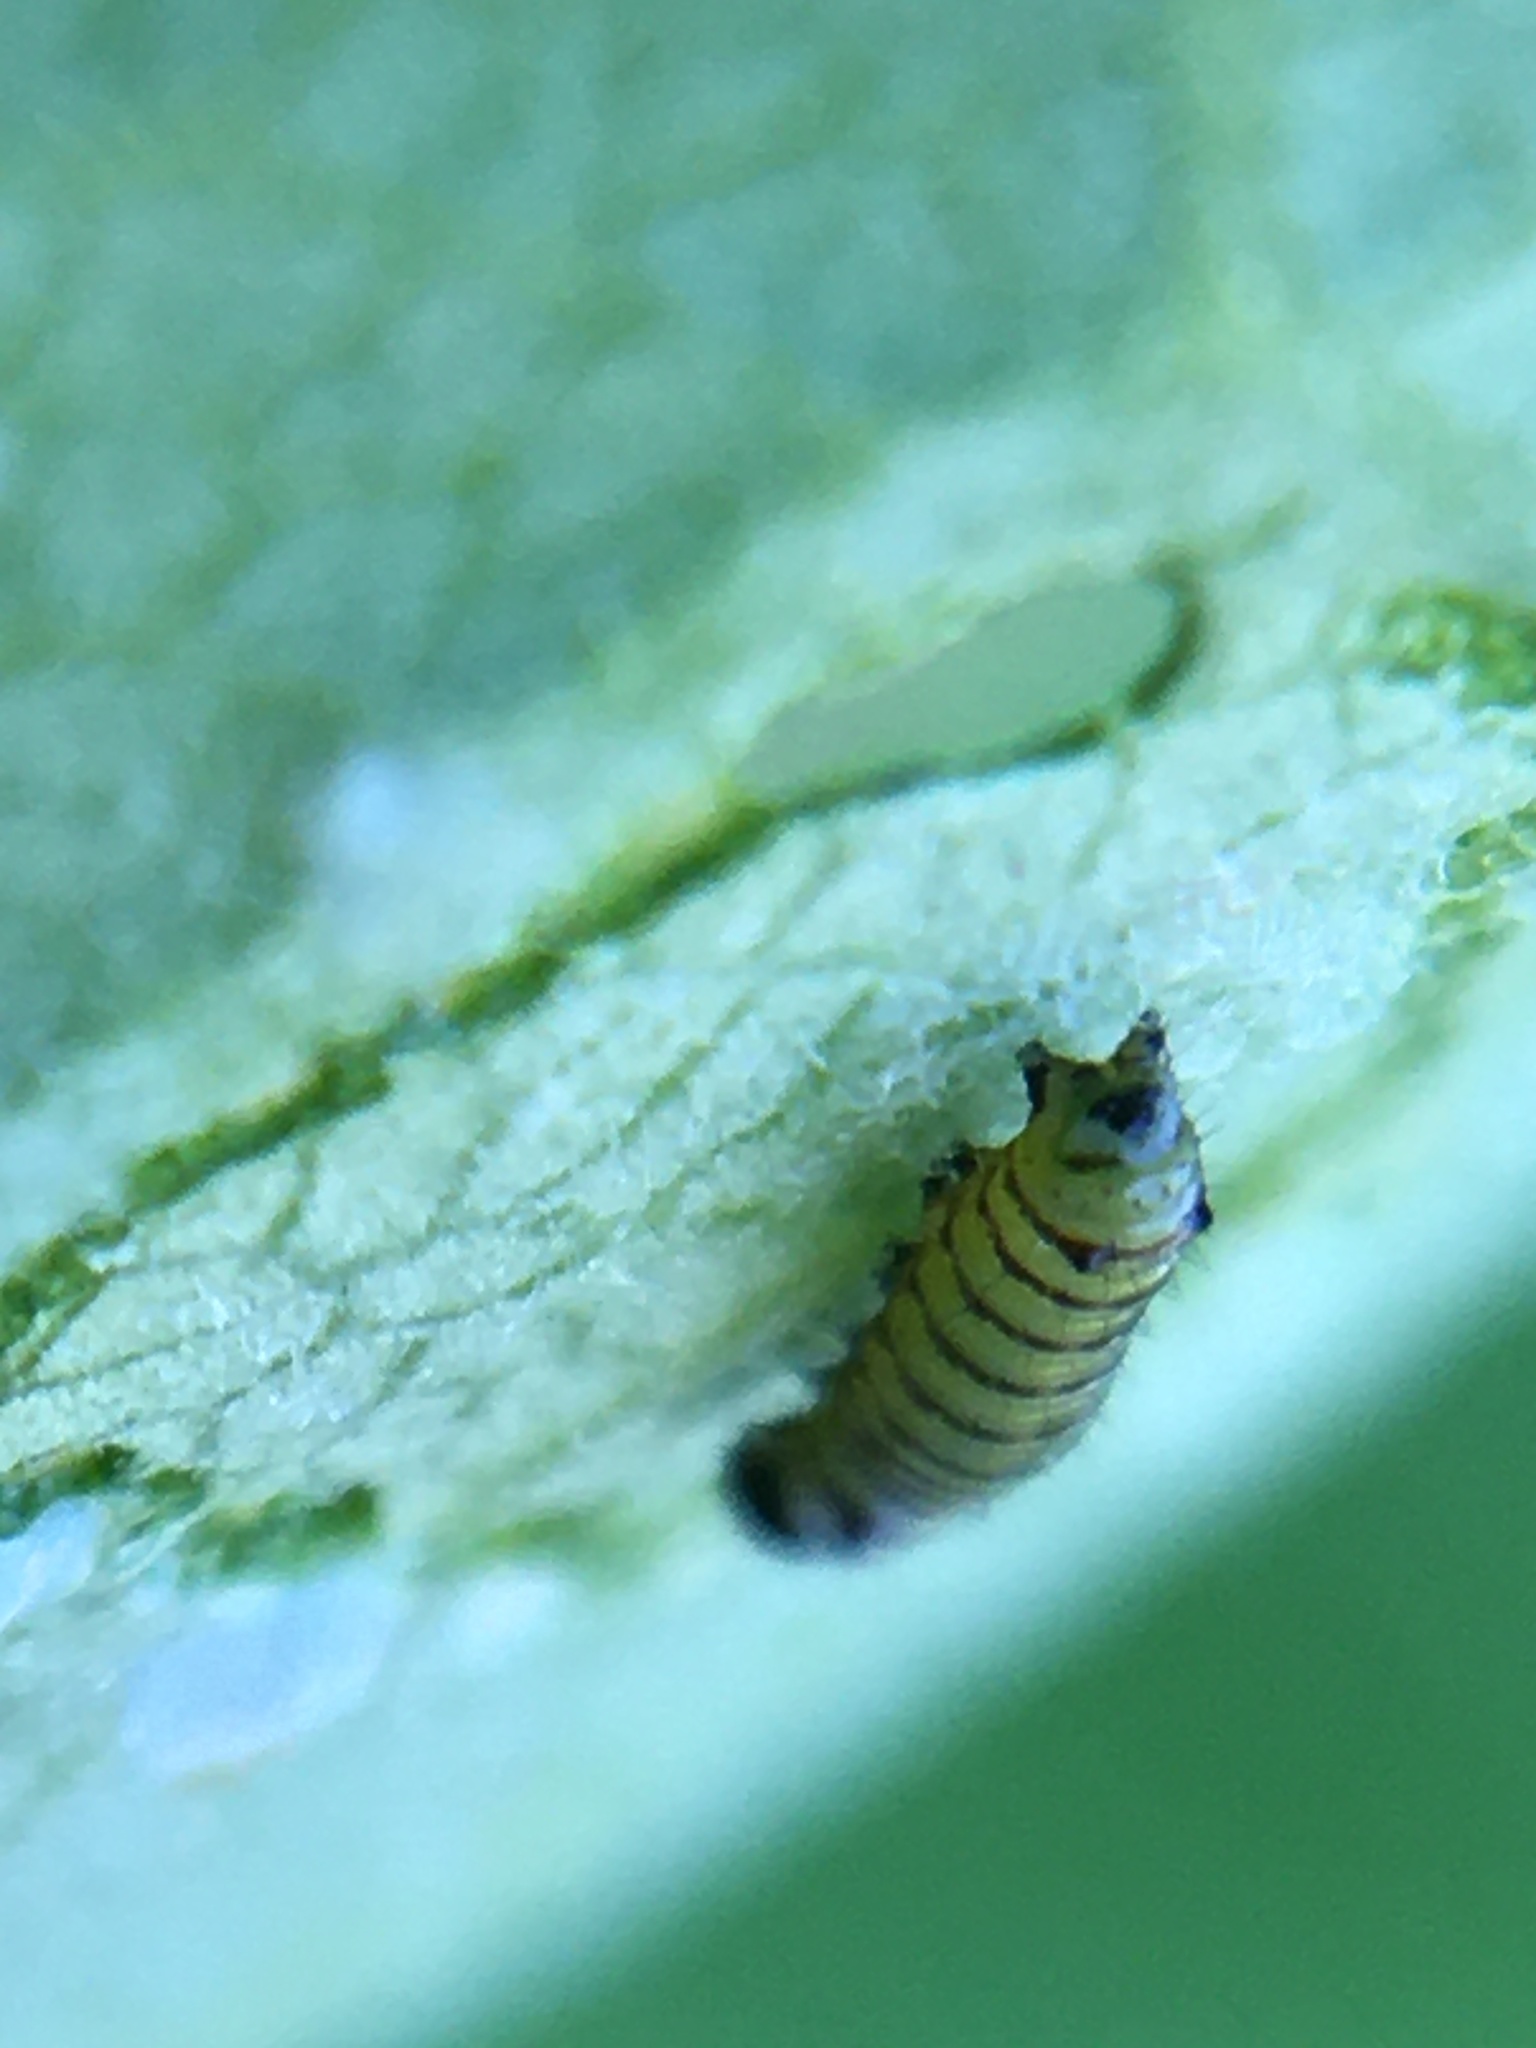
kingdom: Animalia
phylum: Arthropoda
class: Insecta
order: Lepidoptera
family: Nymphalidae
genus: Danaus
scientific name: Danaus plexippus
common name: Monarch
